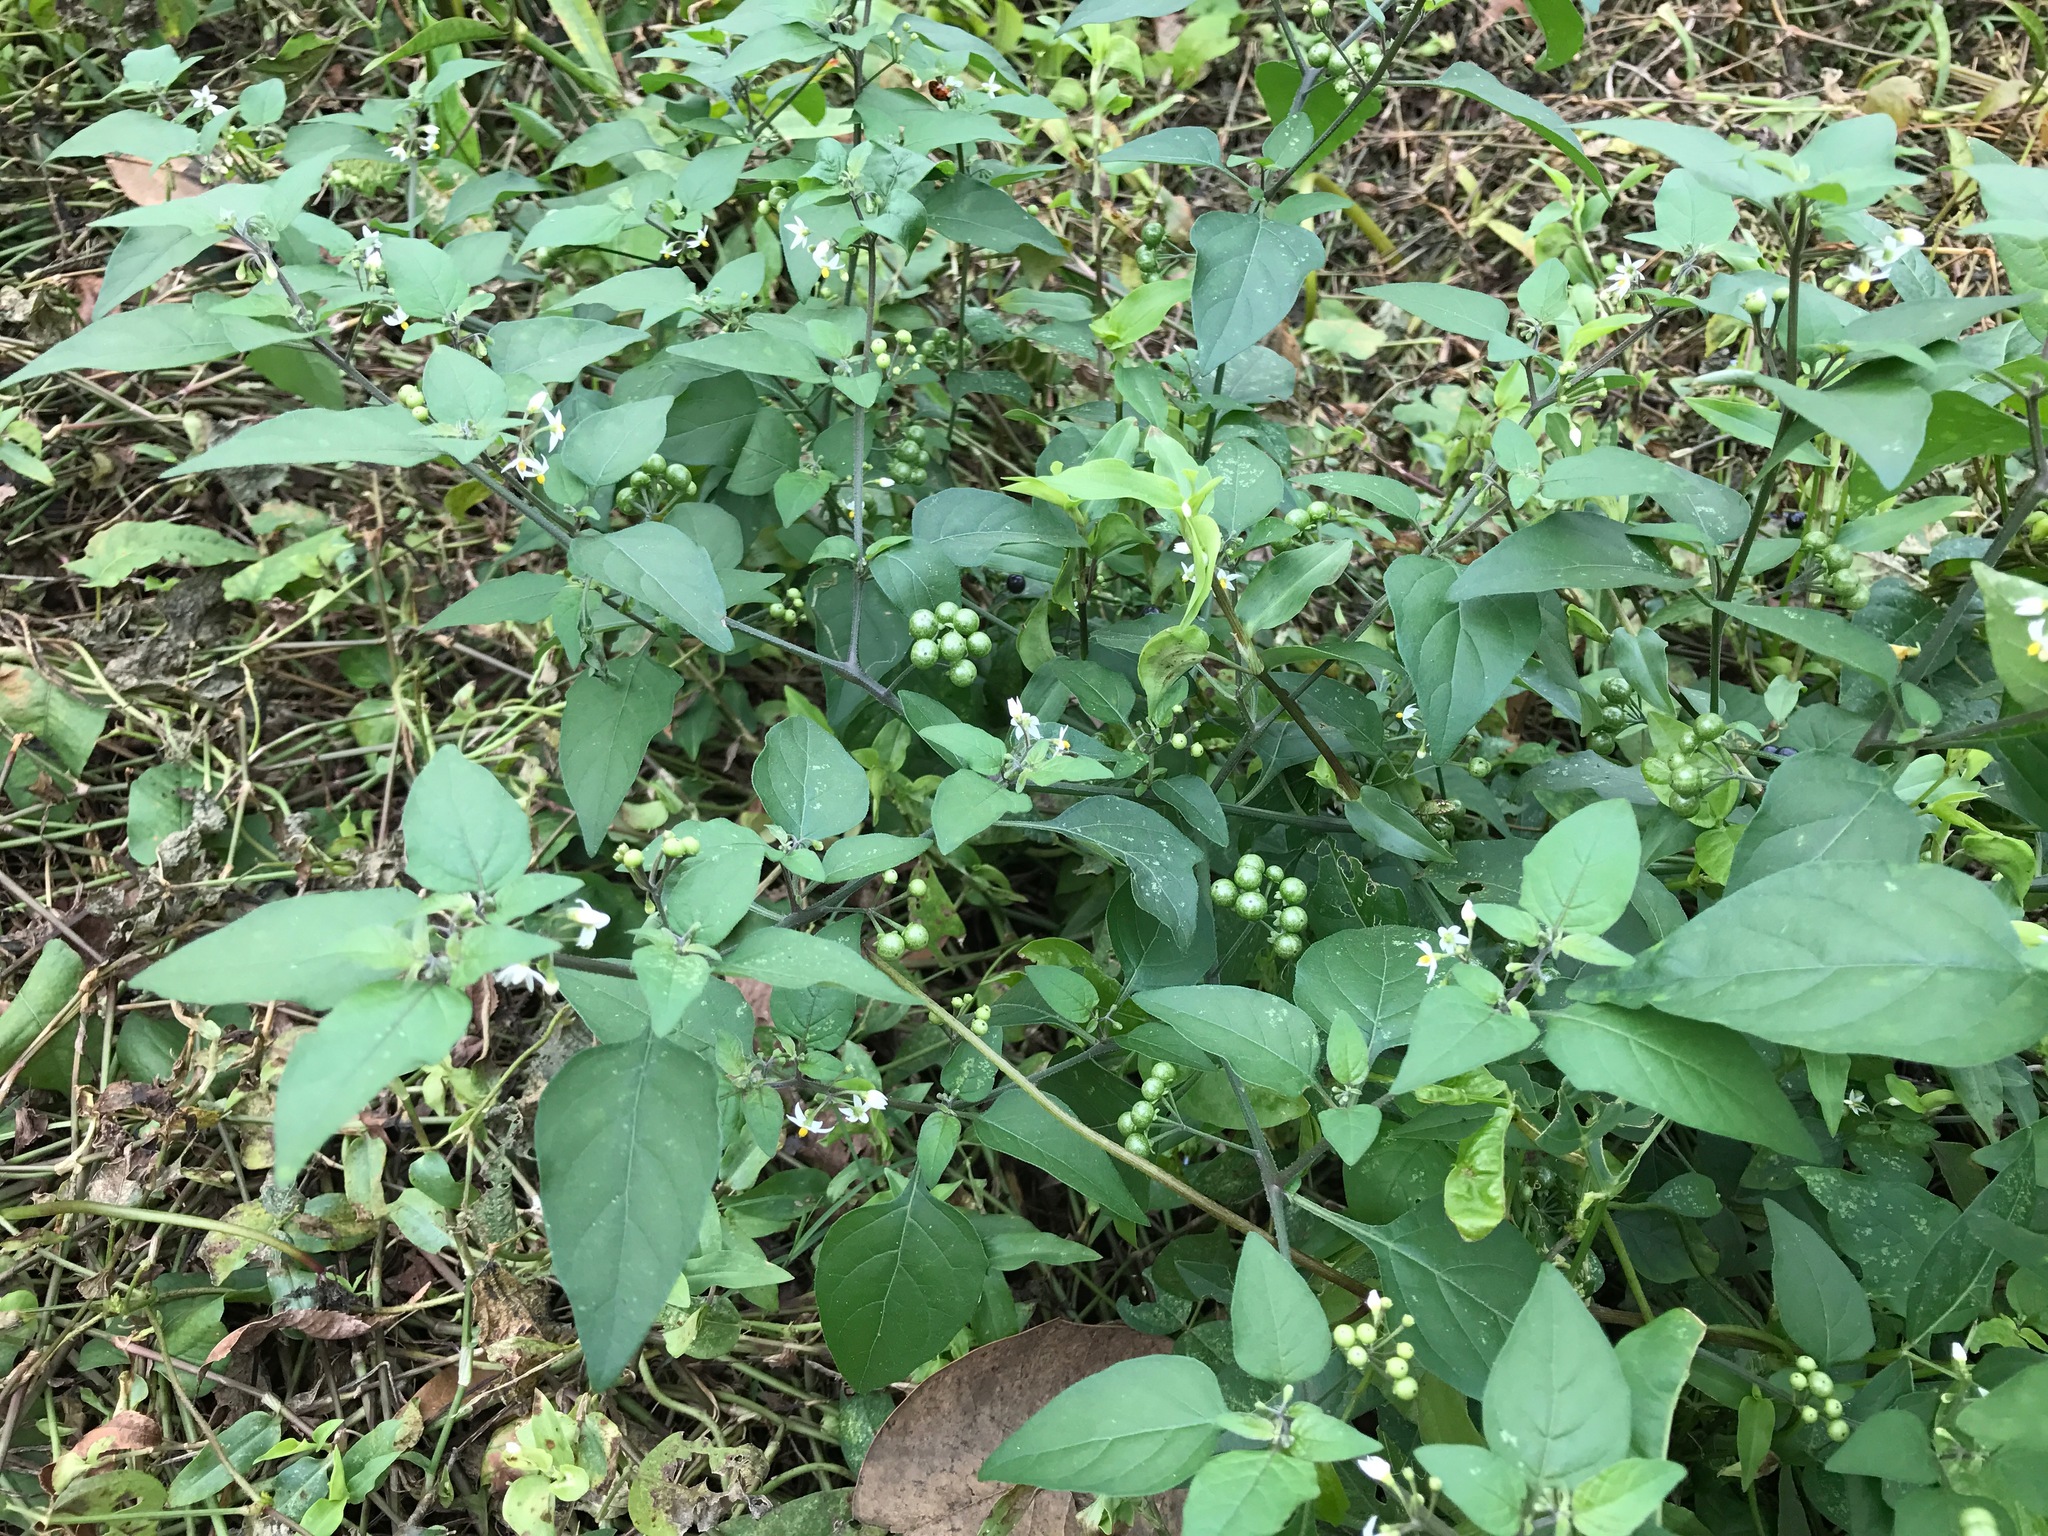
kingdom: Plantae
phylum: Tracheophyta
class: Magnoliopsida
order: Solanales
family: Solanaceae
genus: Solanum
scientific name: Solanum americanum
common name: American black nightshade
